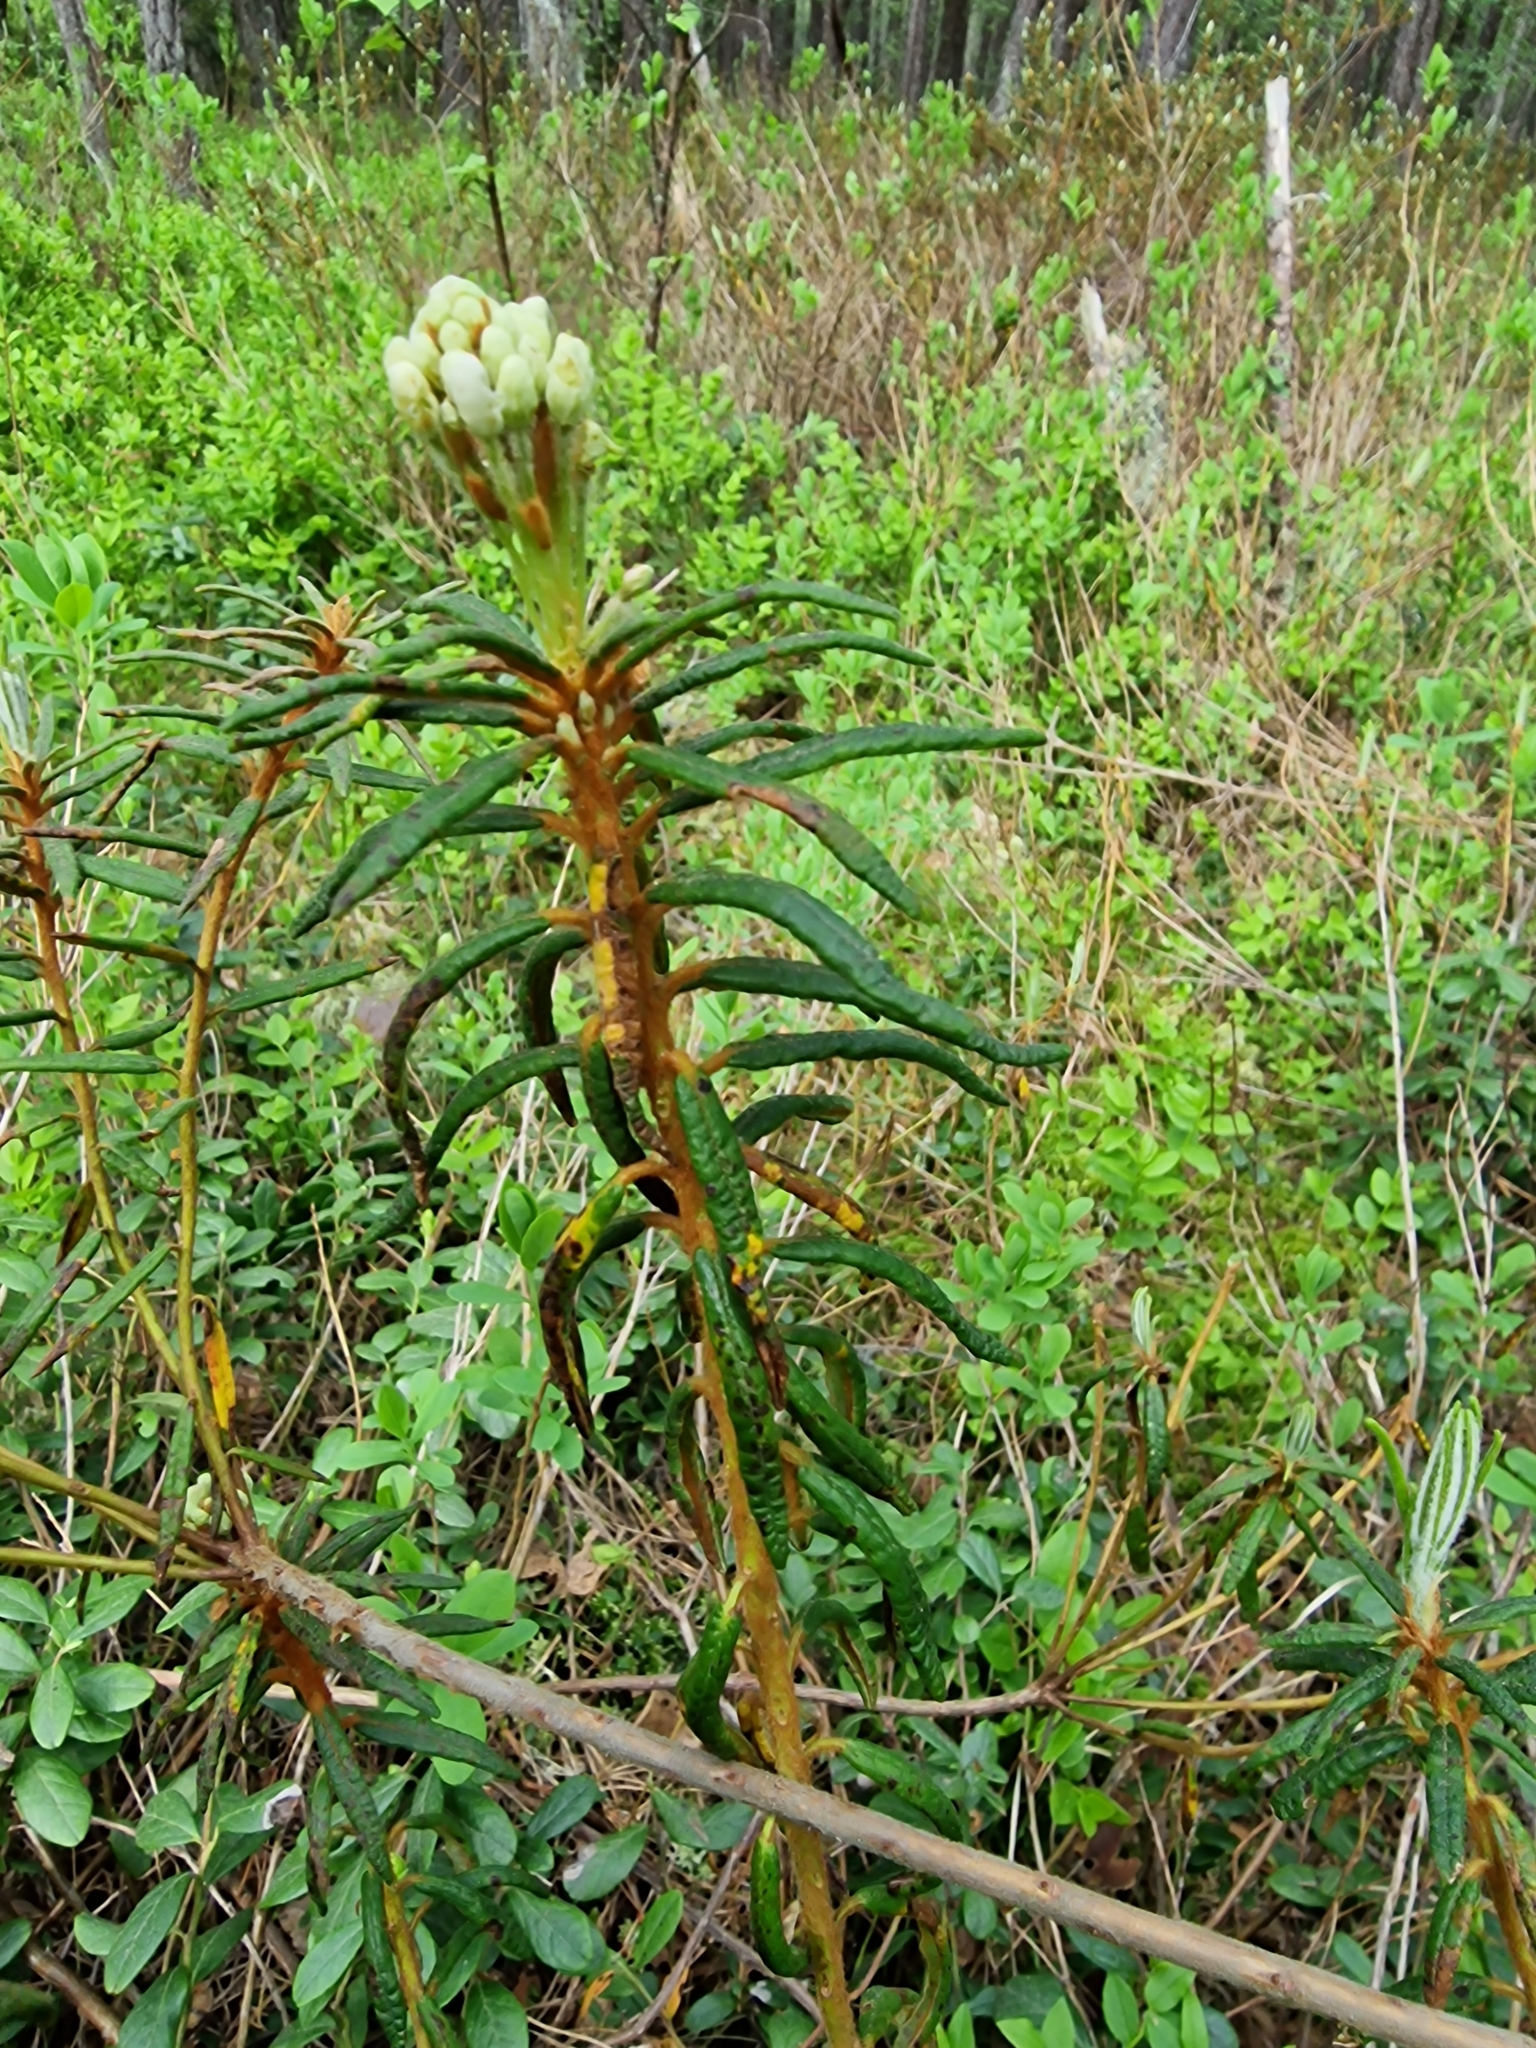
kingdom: Plantae
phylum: Tracheophyta
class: Magnoliopsida
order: Ericales
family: Ericaceae
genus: Rhododendron
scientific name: Rhododendron tomentosum
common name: Marsh labrador tea
